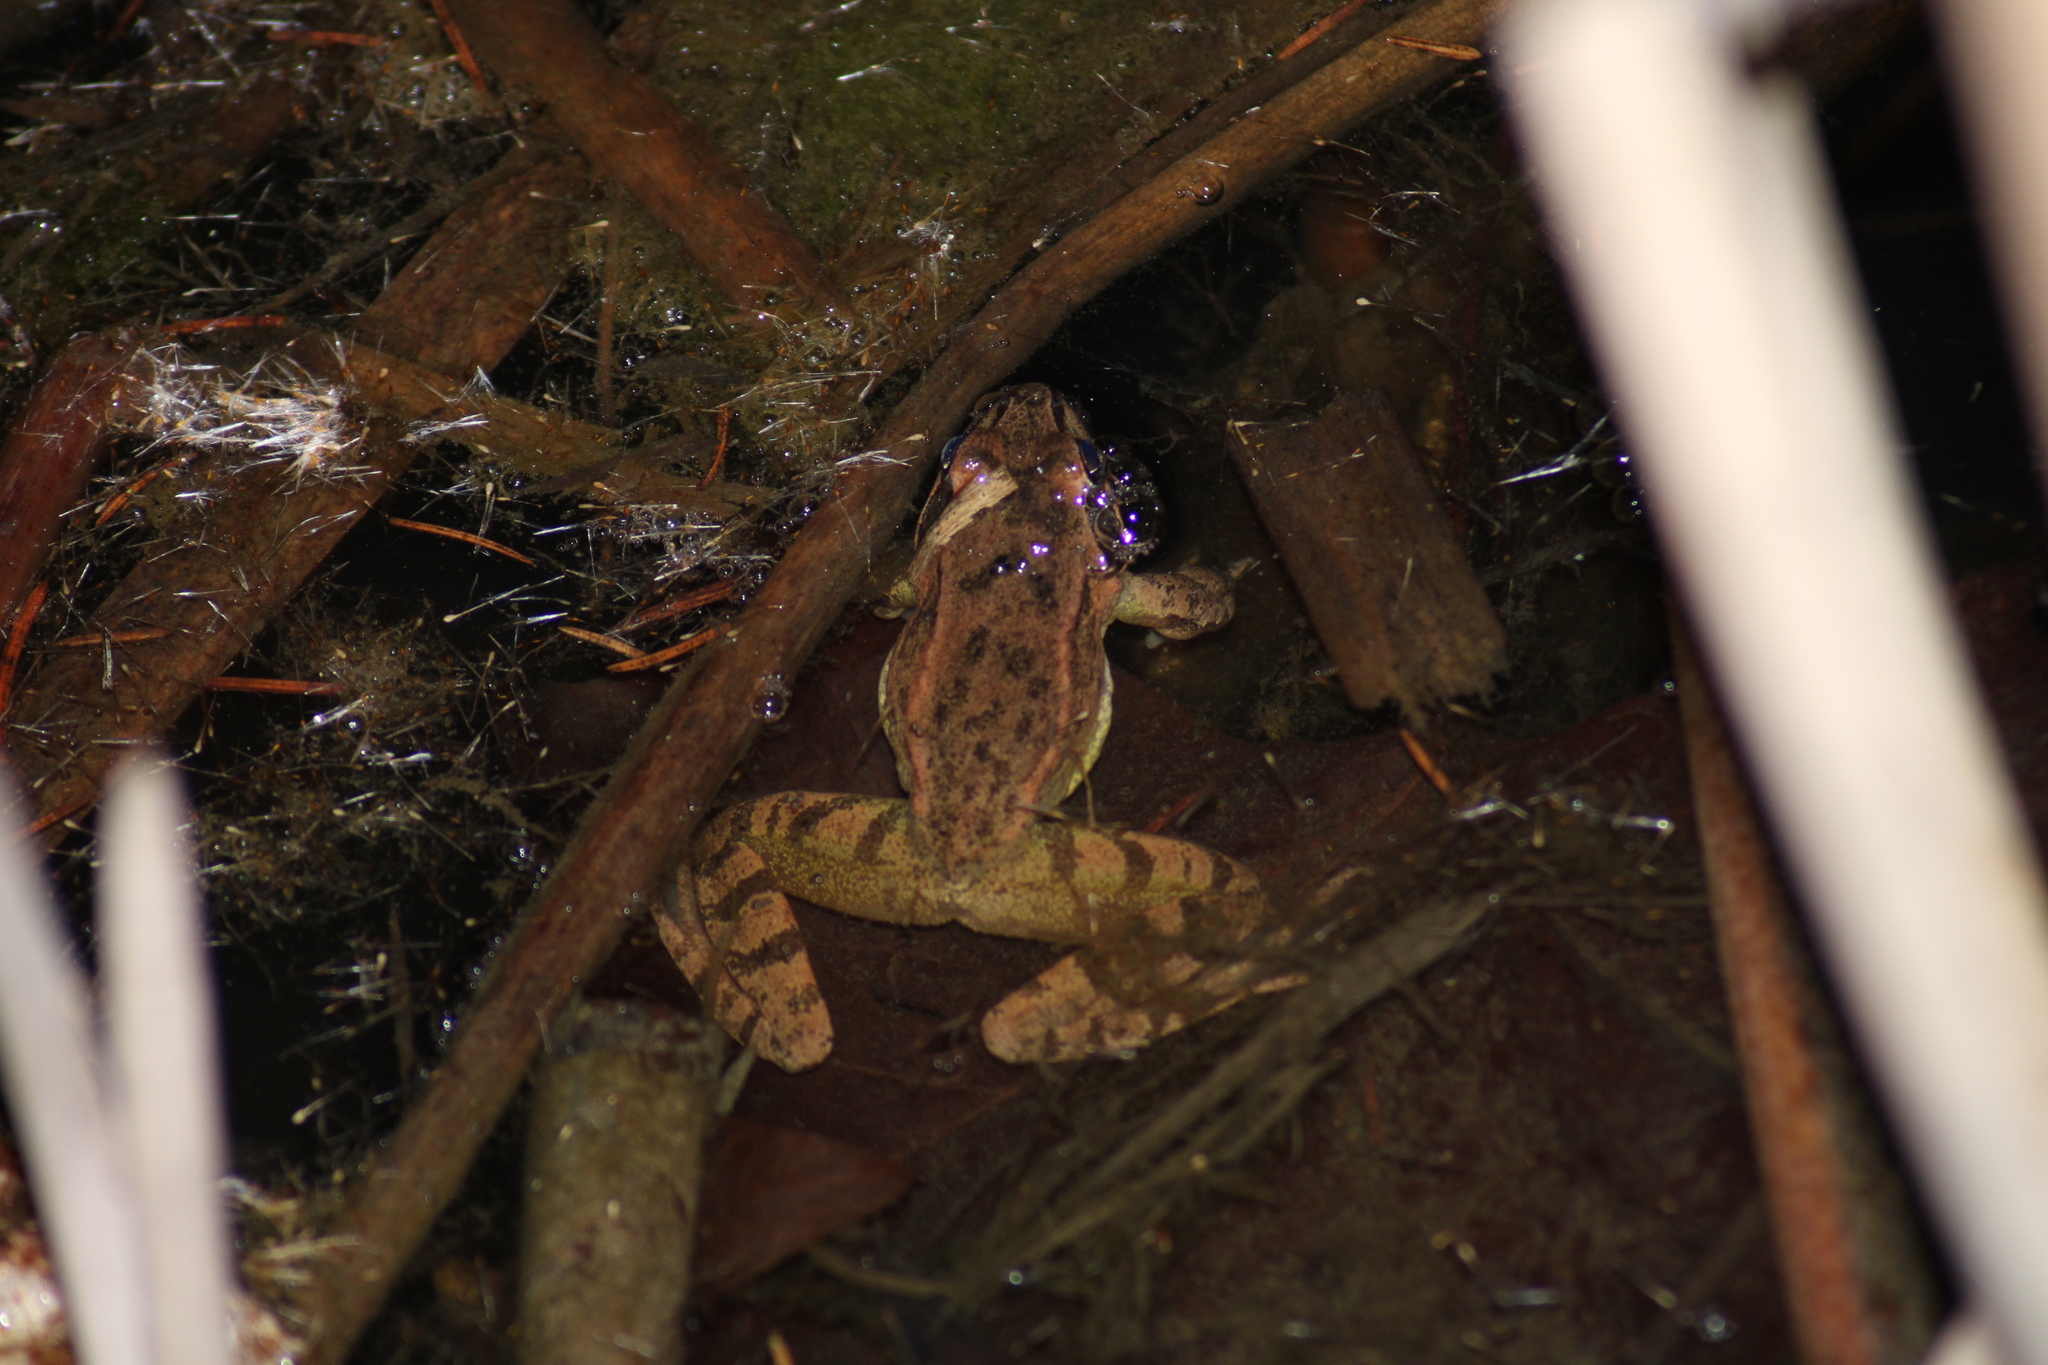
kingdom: Animalia
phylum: Chordata
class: Amphibia
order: Anura
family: Ranidae
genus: Rana
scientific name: Rana dalmatina
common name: Agile frog
